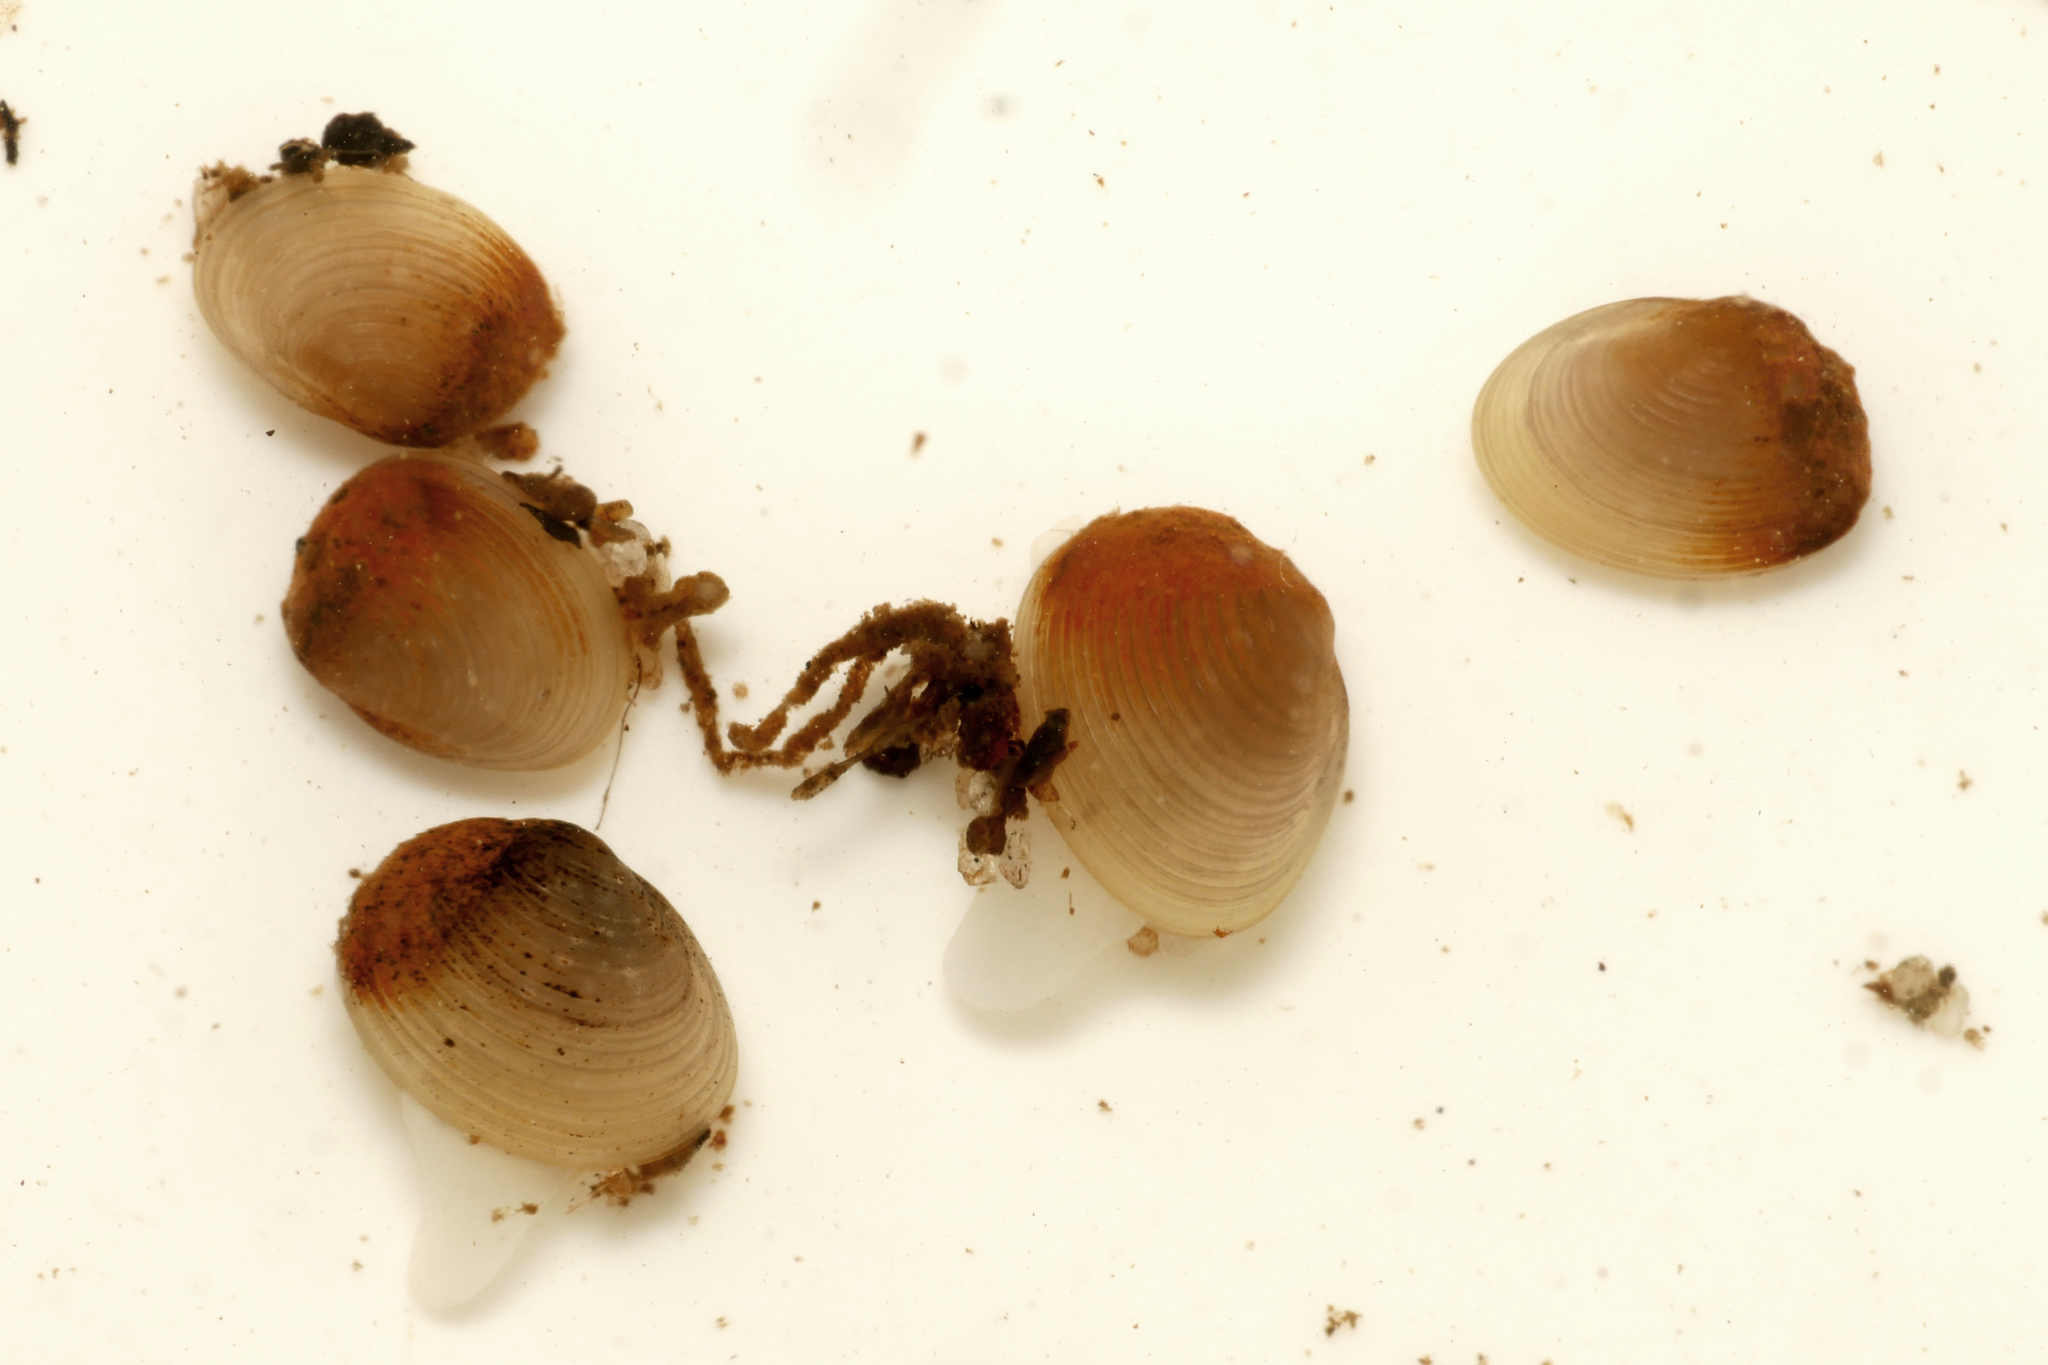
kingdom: Animalia
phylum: Mollusca
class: Bivalvia
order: Sphaeriida
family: Sphaeriidae
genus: Pisidium
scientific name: Pisidium amnicum
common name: Greater european peaclam
